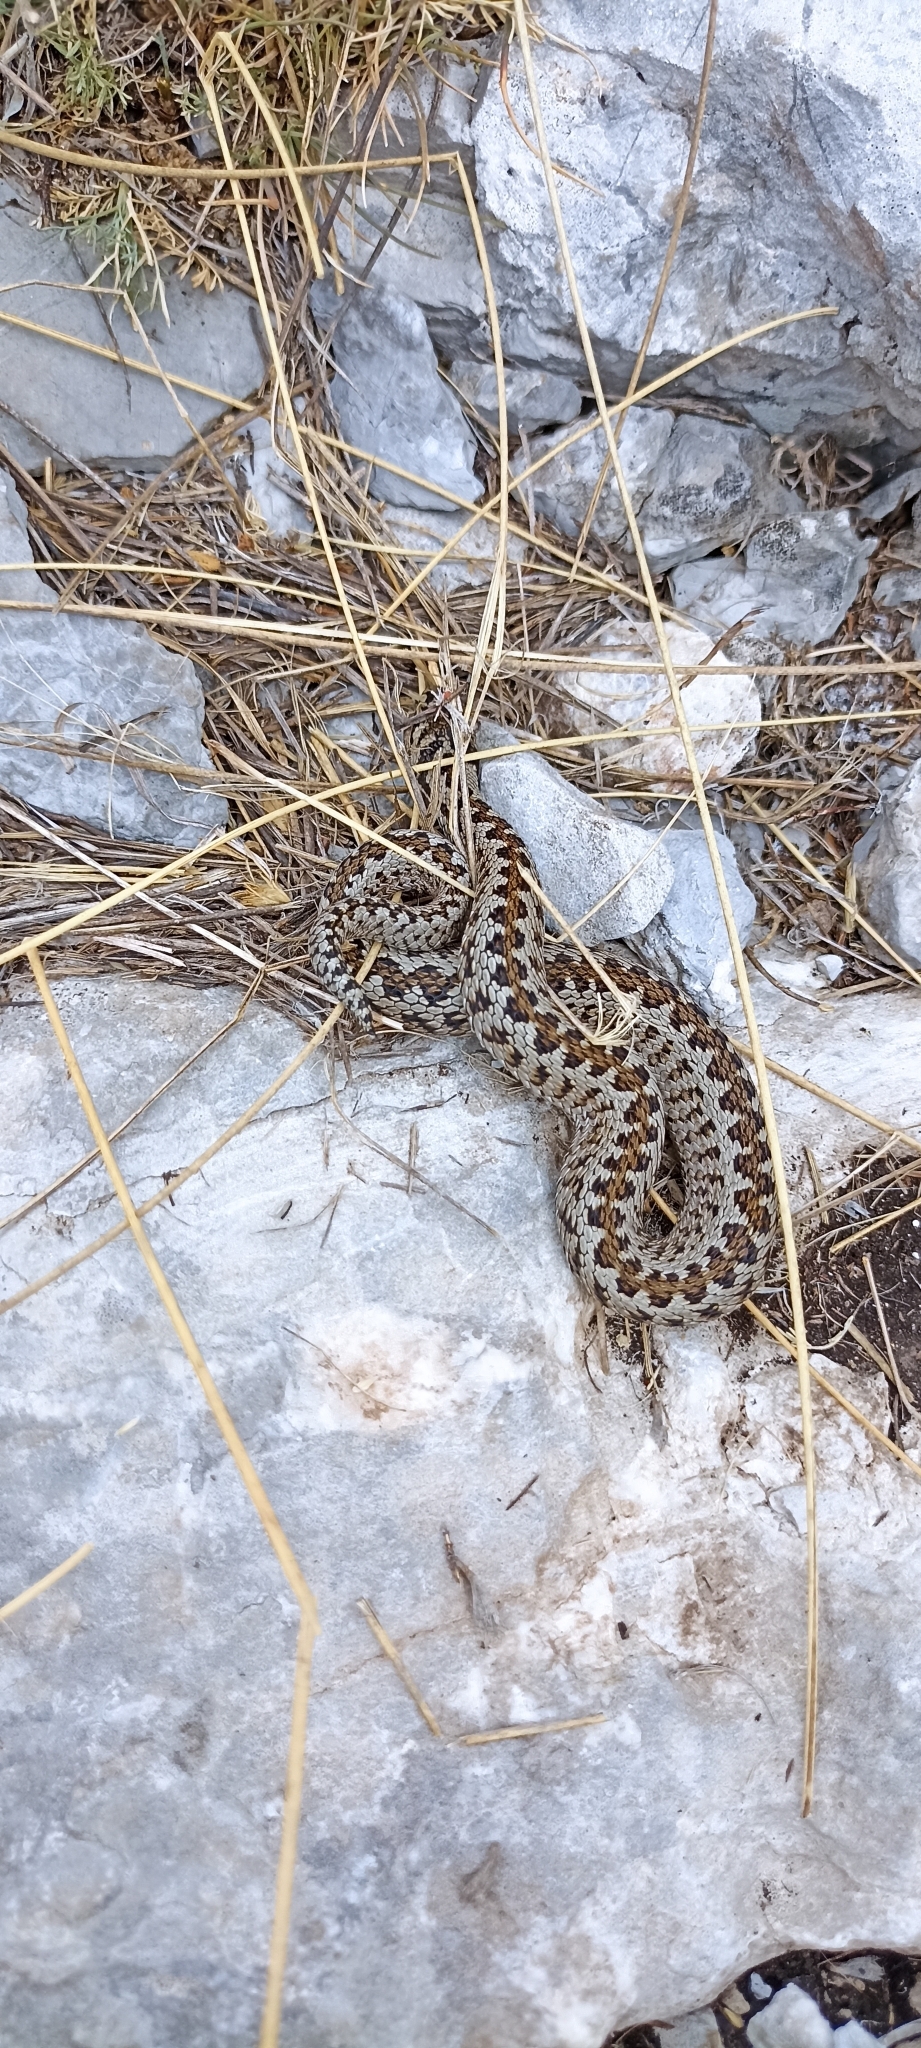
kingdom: Animalia
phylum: Chordata
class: Squamata
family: Viperidae
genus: Vipera
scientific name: Vipera ursinii
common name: Meadow viper
